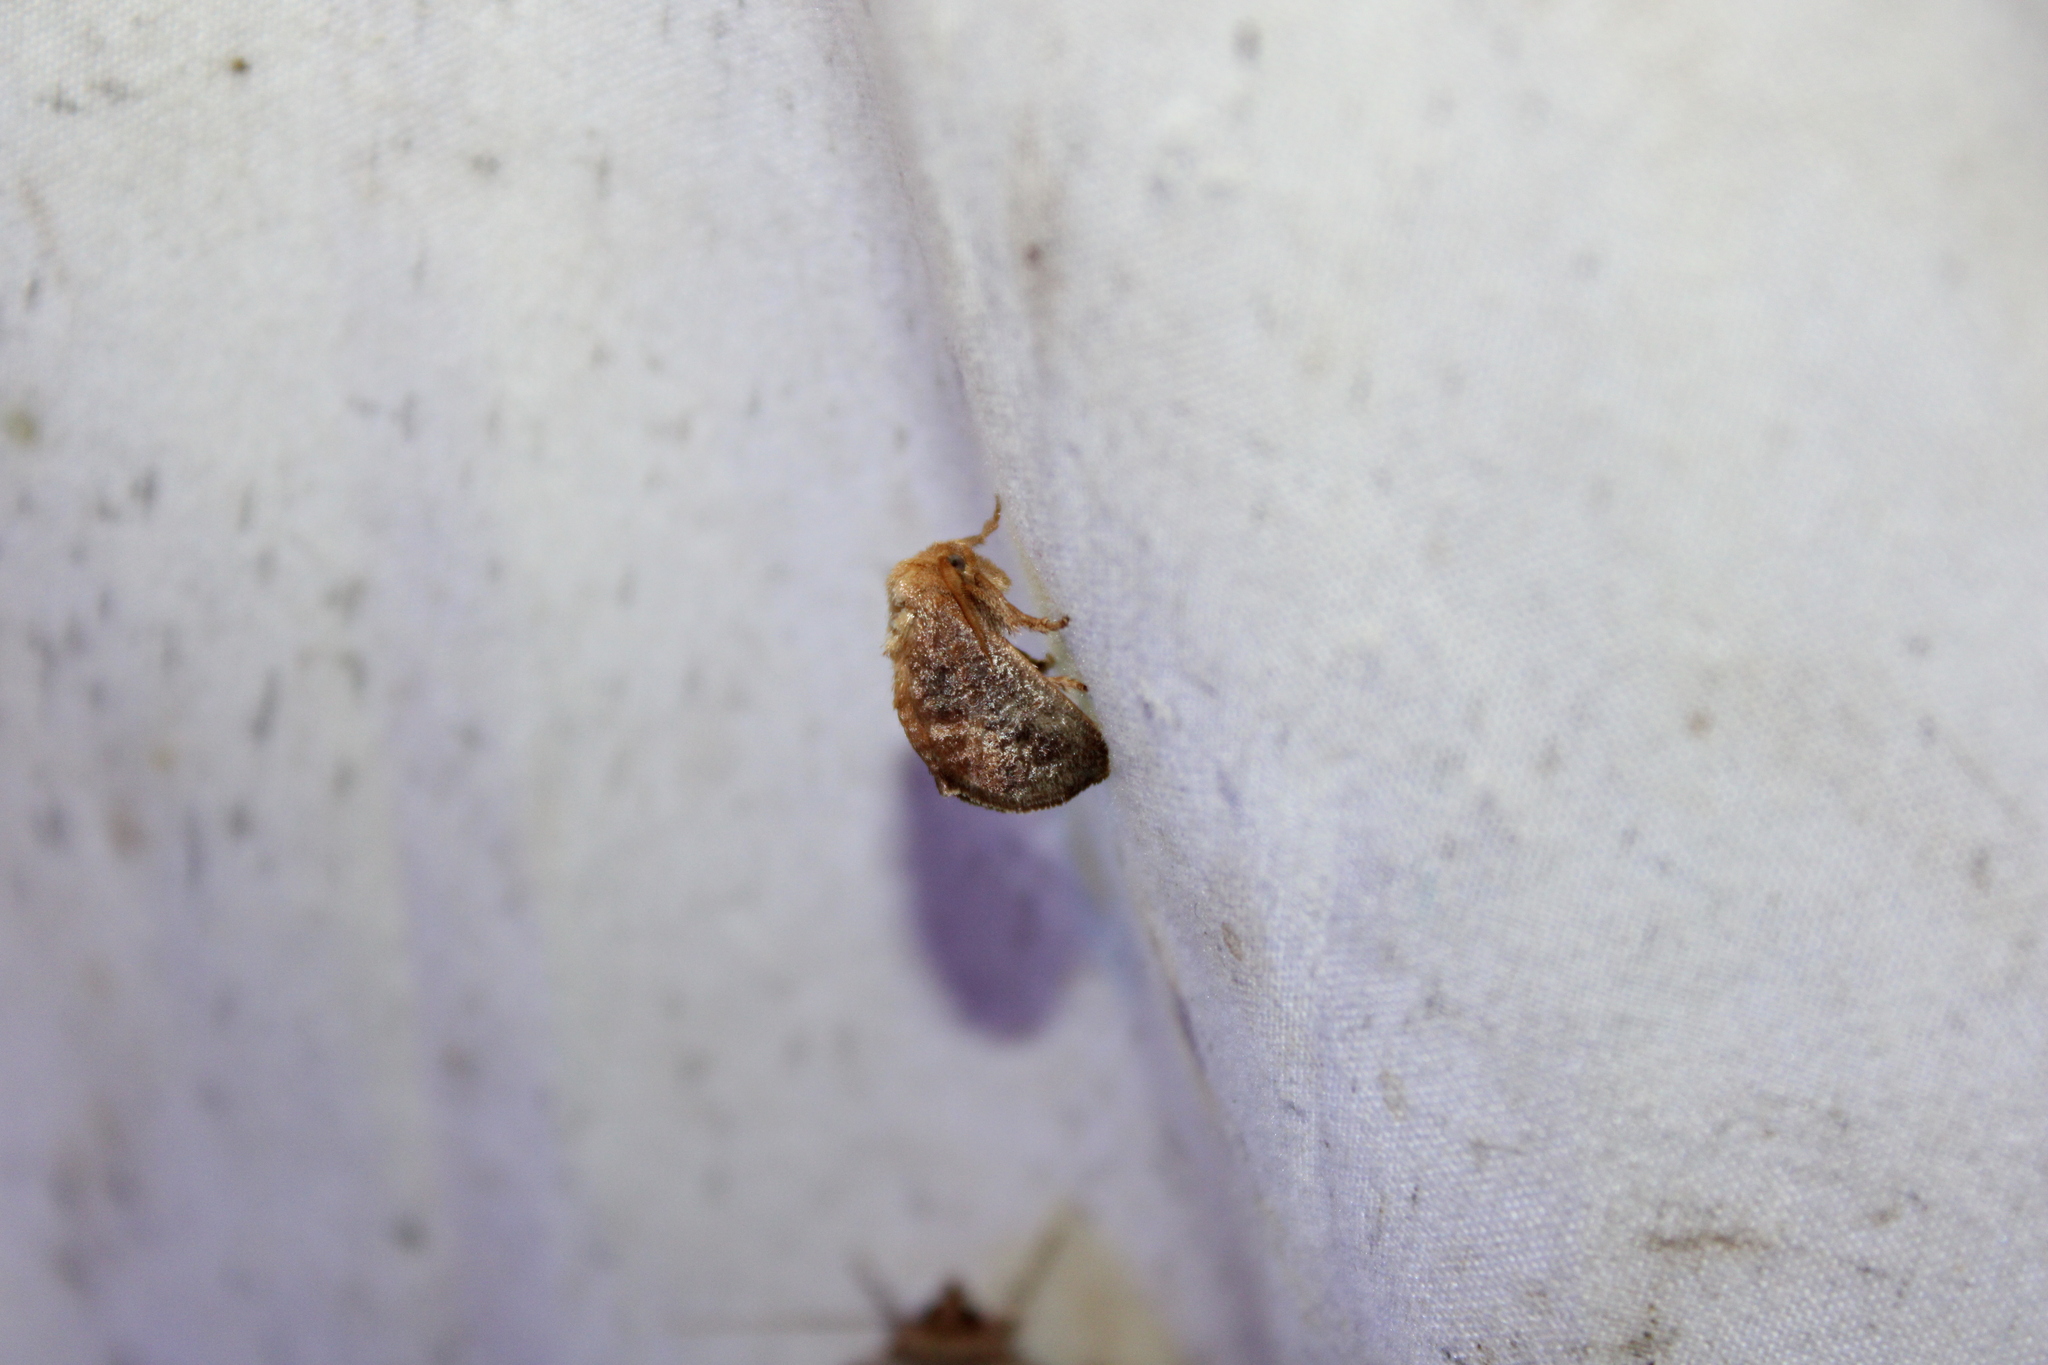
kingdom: Animalia
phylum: Arthropoda
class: Insecta
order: Lepidoptera
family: Limacodidae
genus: Isa
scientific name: Isa textula
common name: Crowned slug moth
